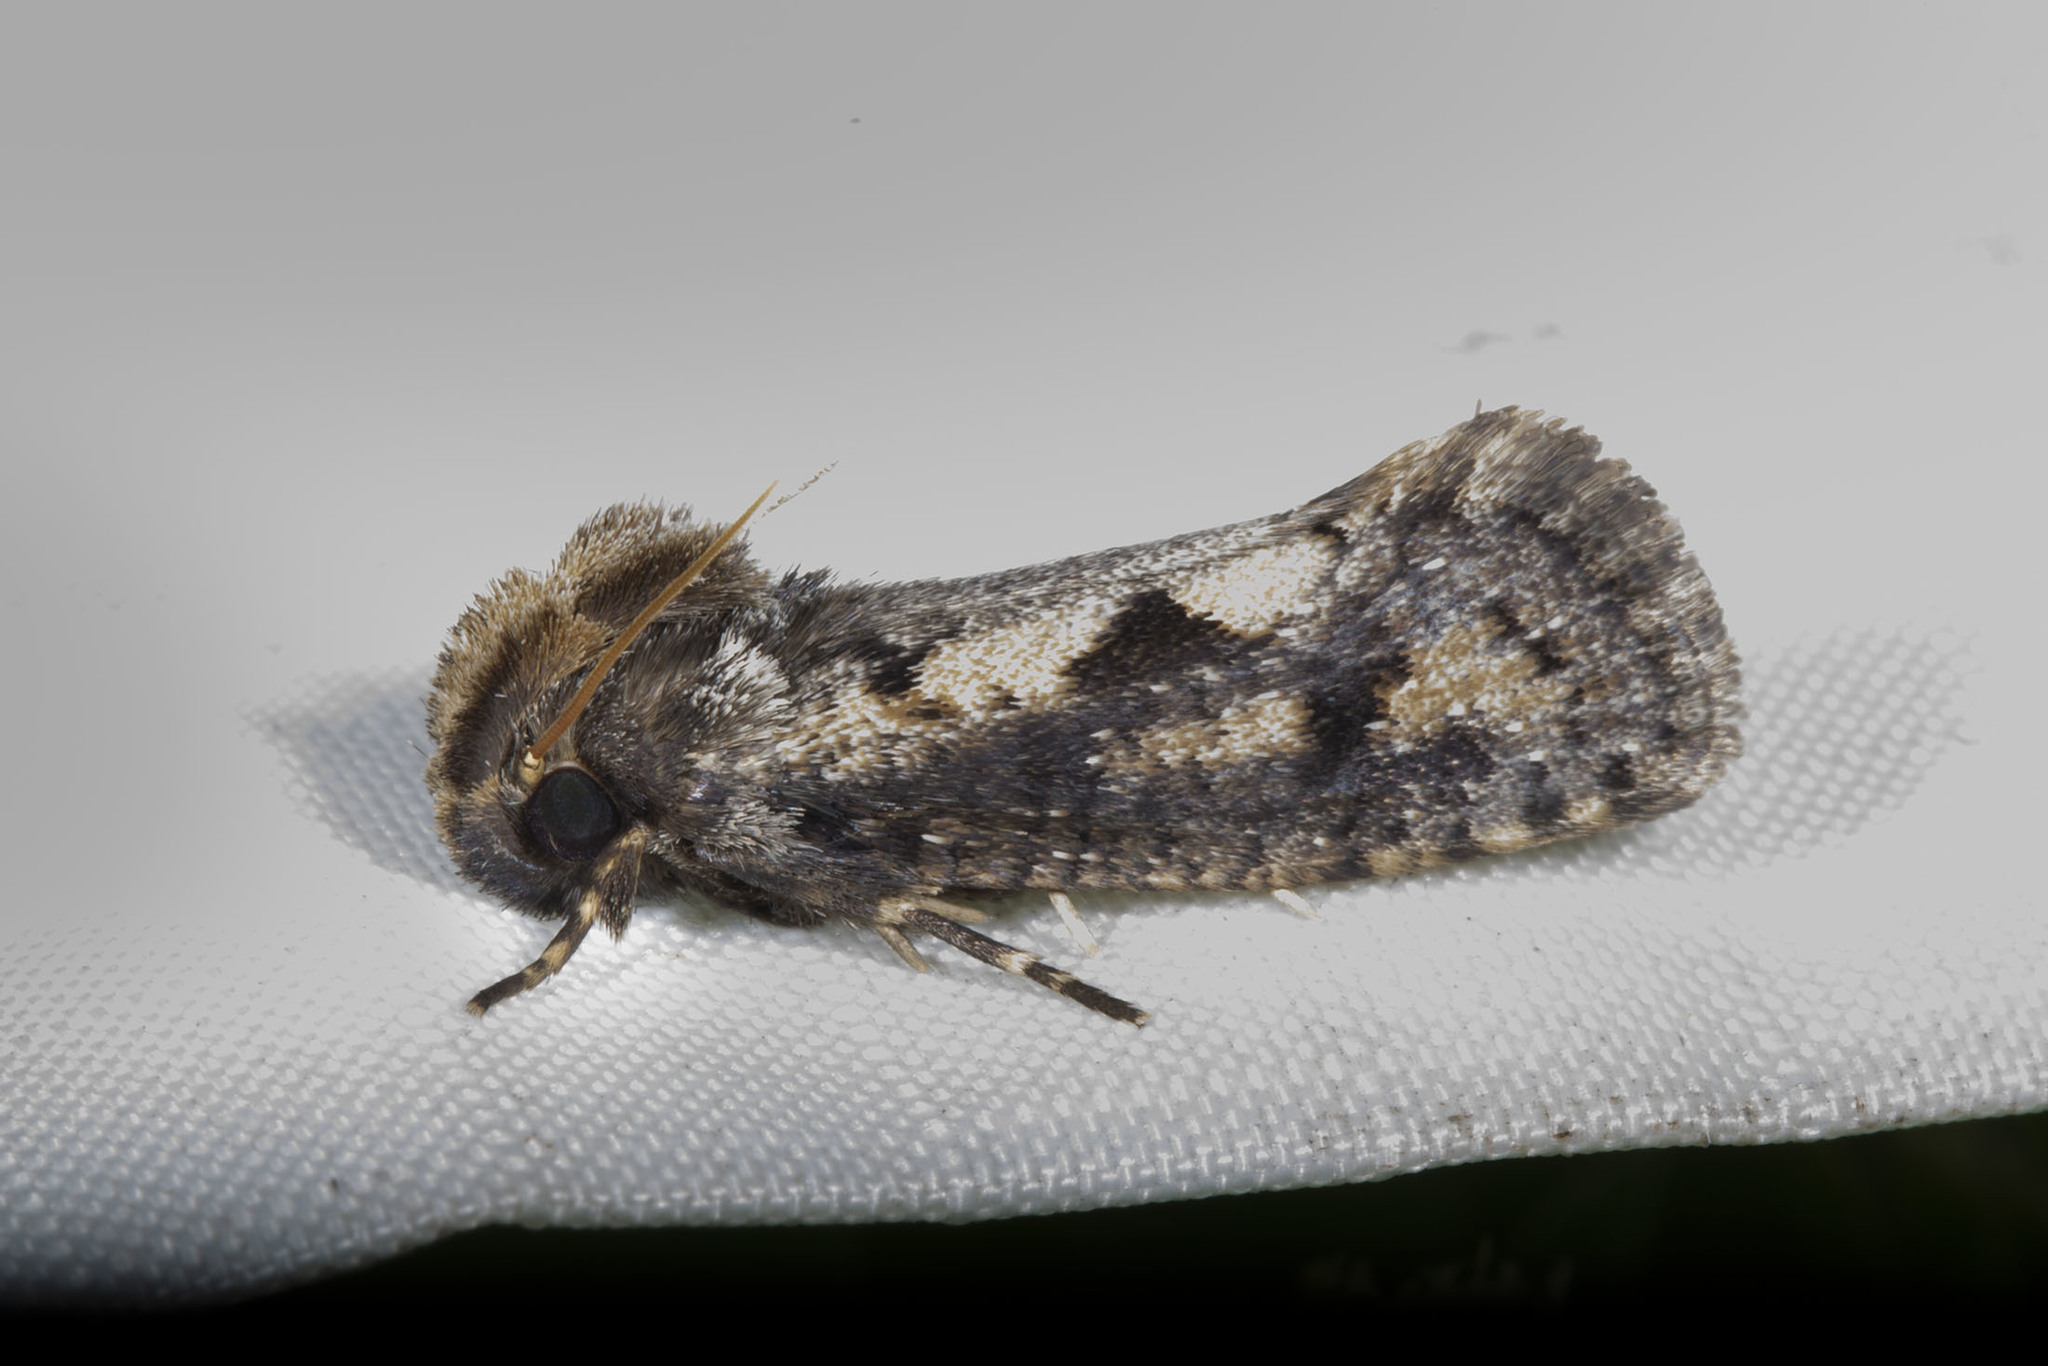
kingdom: Animalia
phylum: Arthropoda
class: Insecta
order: Lepidoptera
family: Tineidae
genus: Acrolophus
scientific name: Acrolophus popeanella
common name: Clemens' grass tubeworm moth
